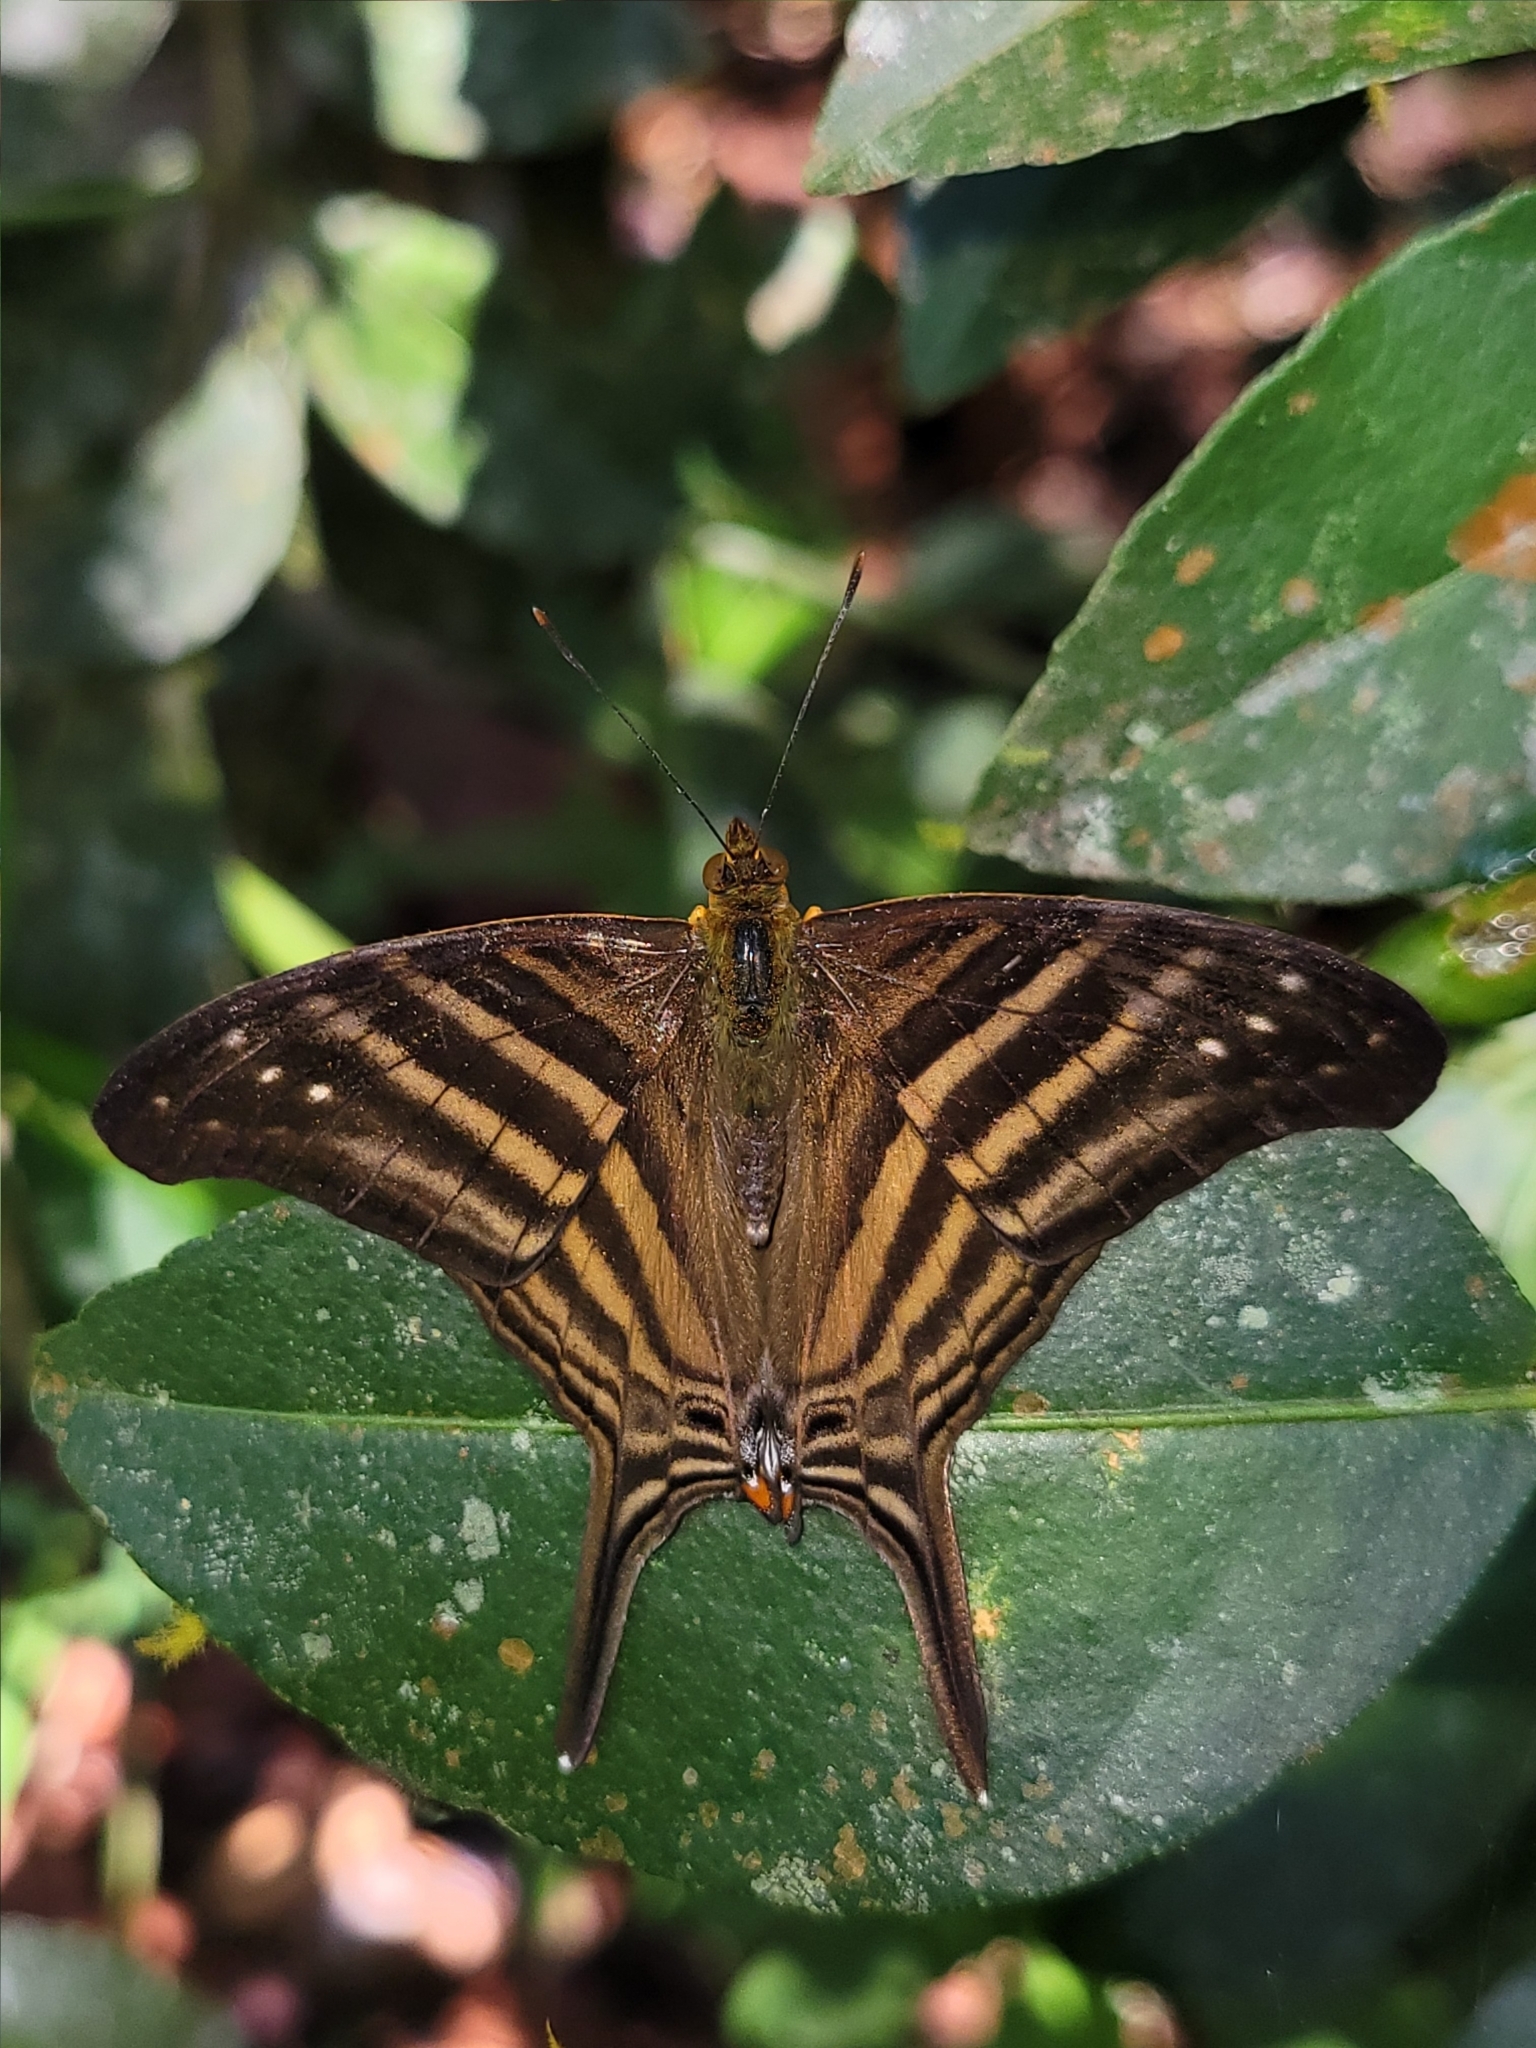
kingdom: Animalia
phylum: Arthropoda
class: Insecta
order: Lepidoptera
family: Nymphalidae
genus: Marpesia
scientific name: Marpesia chiron
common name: Many-banded daggerwing
